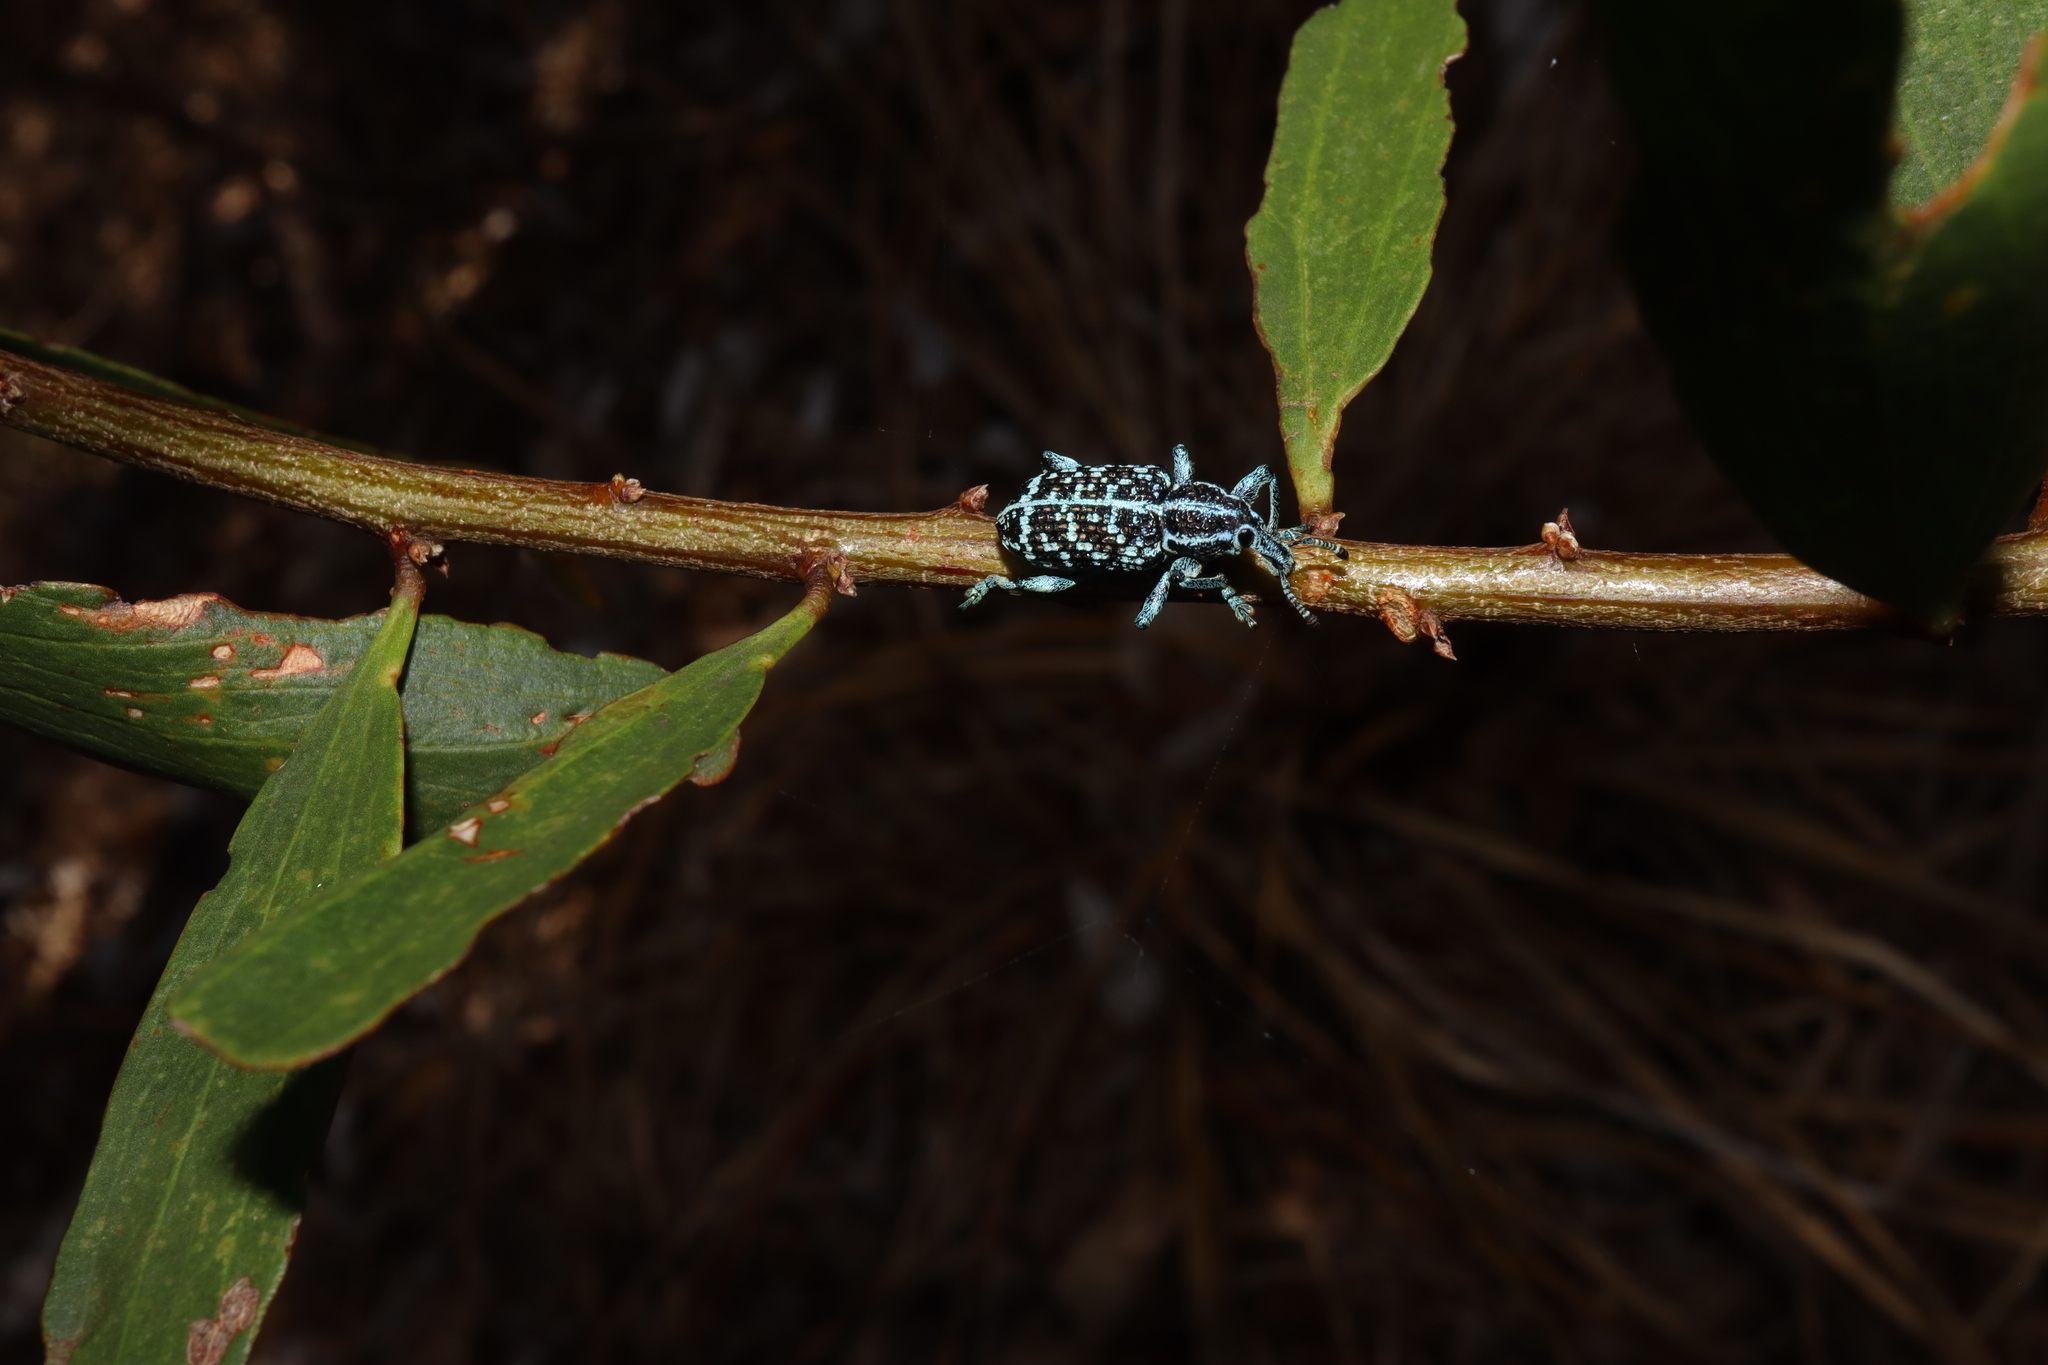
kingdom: Animalia
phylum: Arthropoda
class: Insecta
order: Coleoptera
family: Curculionidae
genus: Chrysolopus
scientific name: Chrysolopus spectabilis
